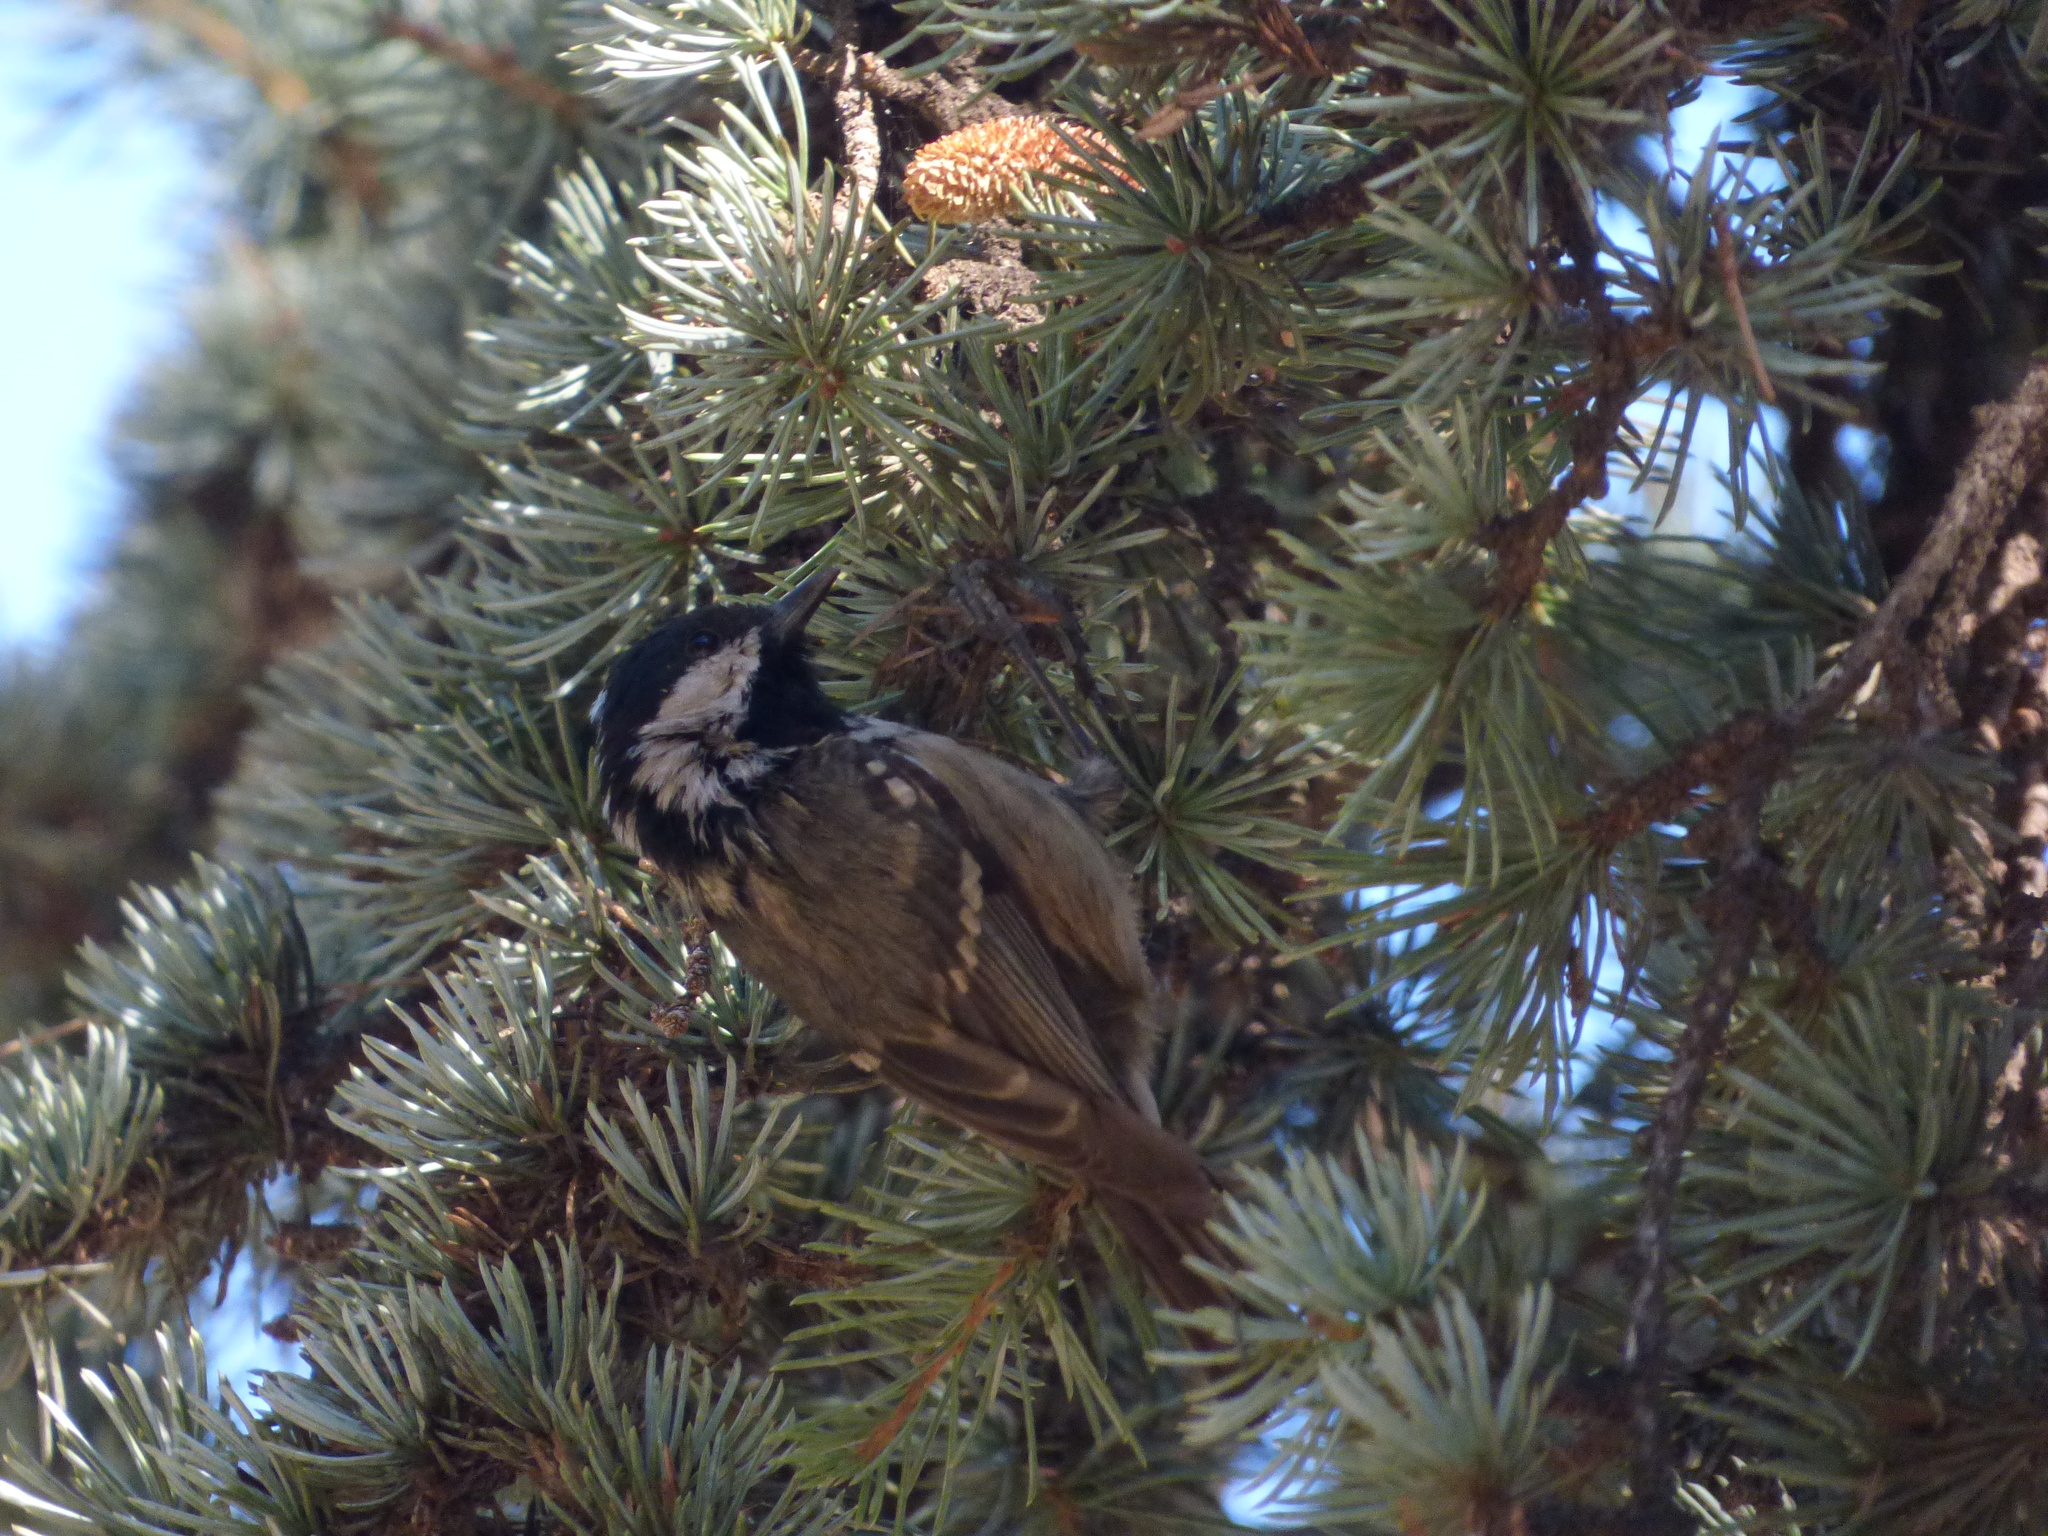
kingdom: Animalia
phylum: Chordata
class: Aves
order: Passeriformes
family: Paridae
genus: Periparus
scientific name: Periparus ater
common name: Coal tit
